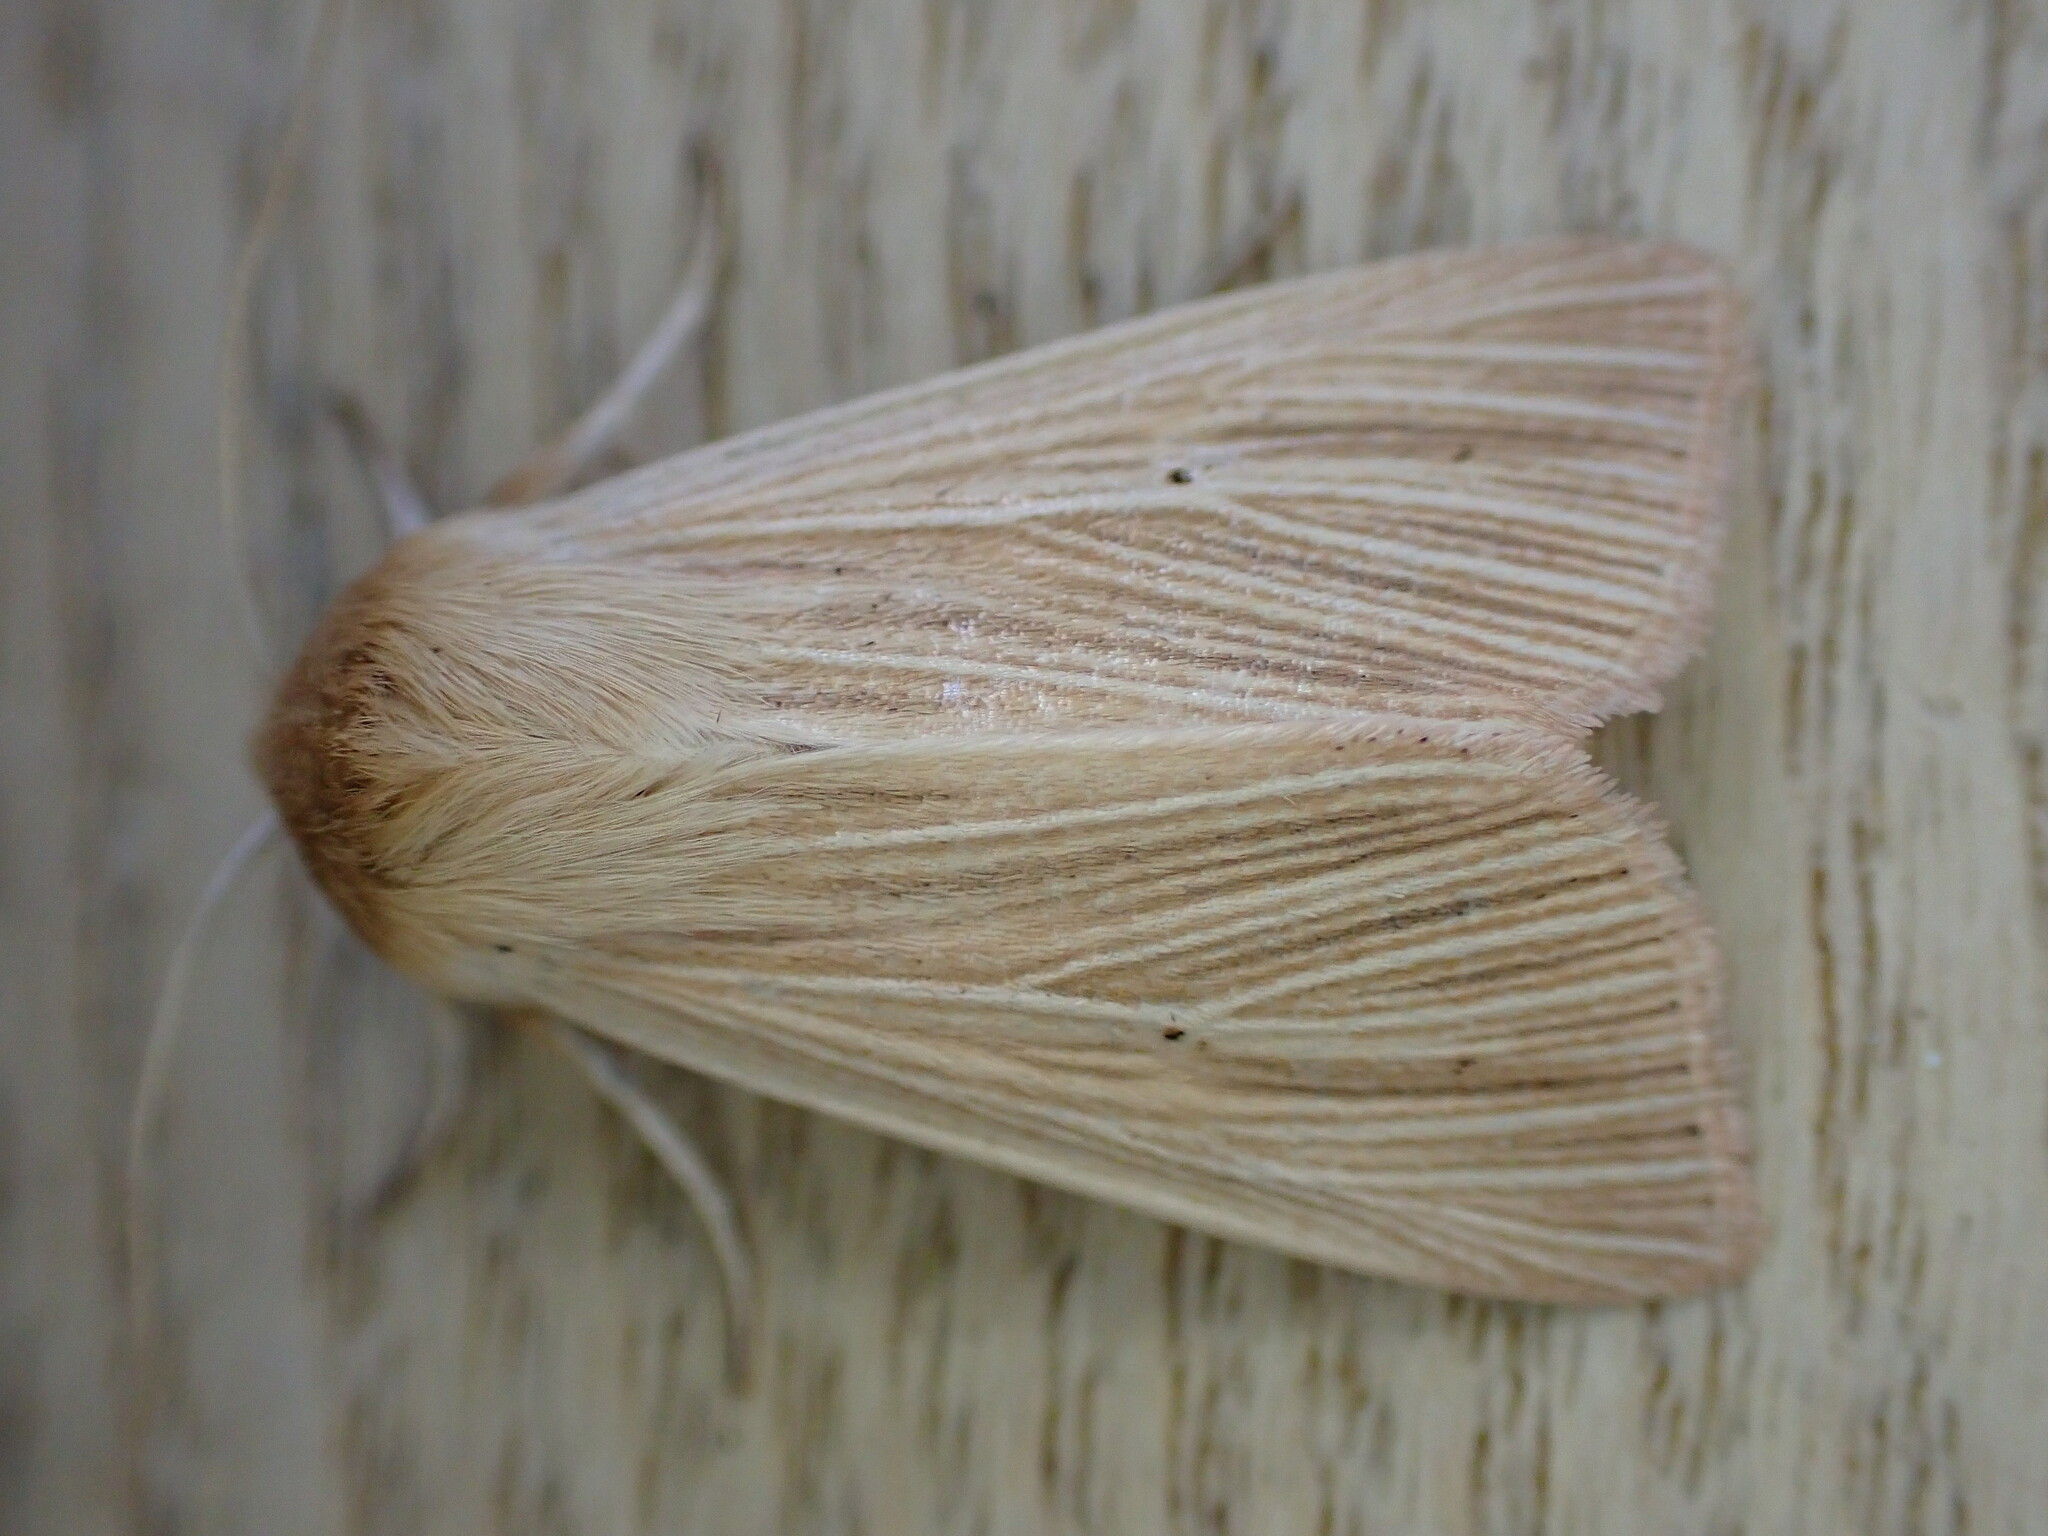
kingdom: Animalia
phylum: Arthropoda
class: Insecta
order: Lepidoptera
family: Noctuidae
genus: Mythimna
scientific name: Mythimna pallens
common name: Common wainscot
